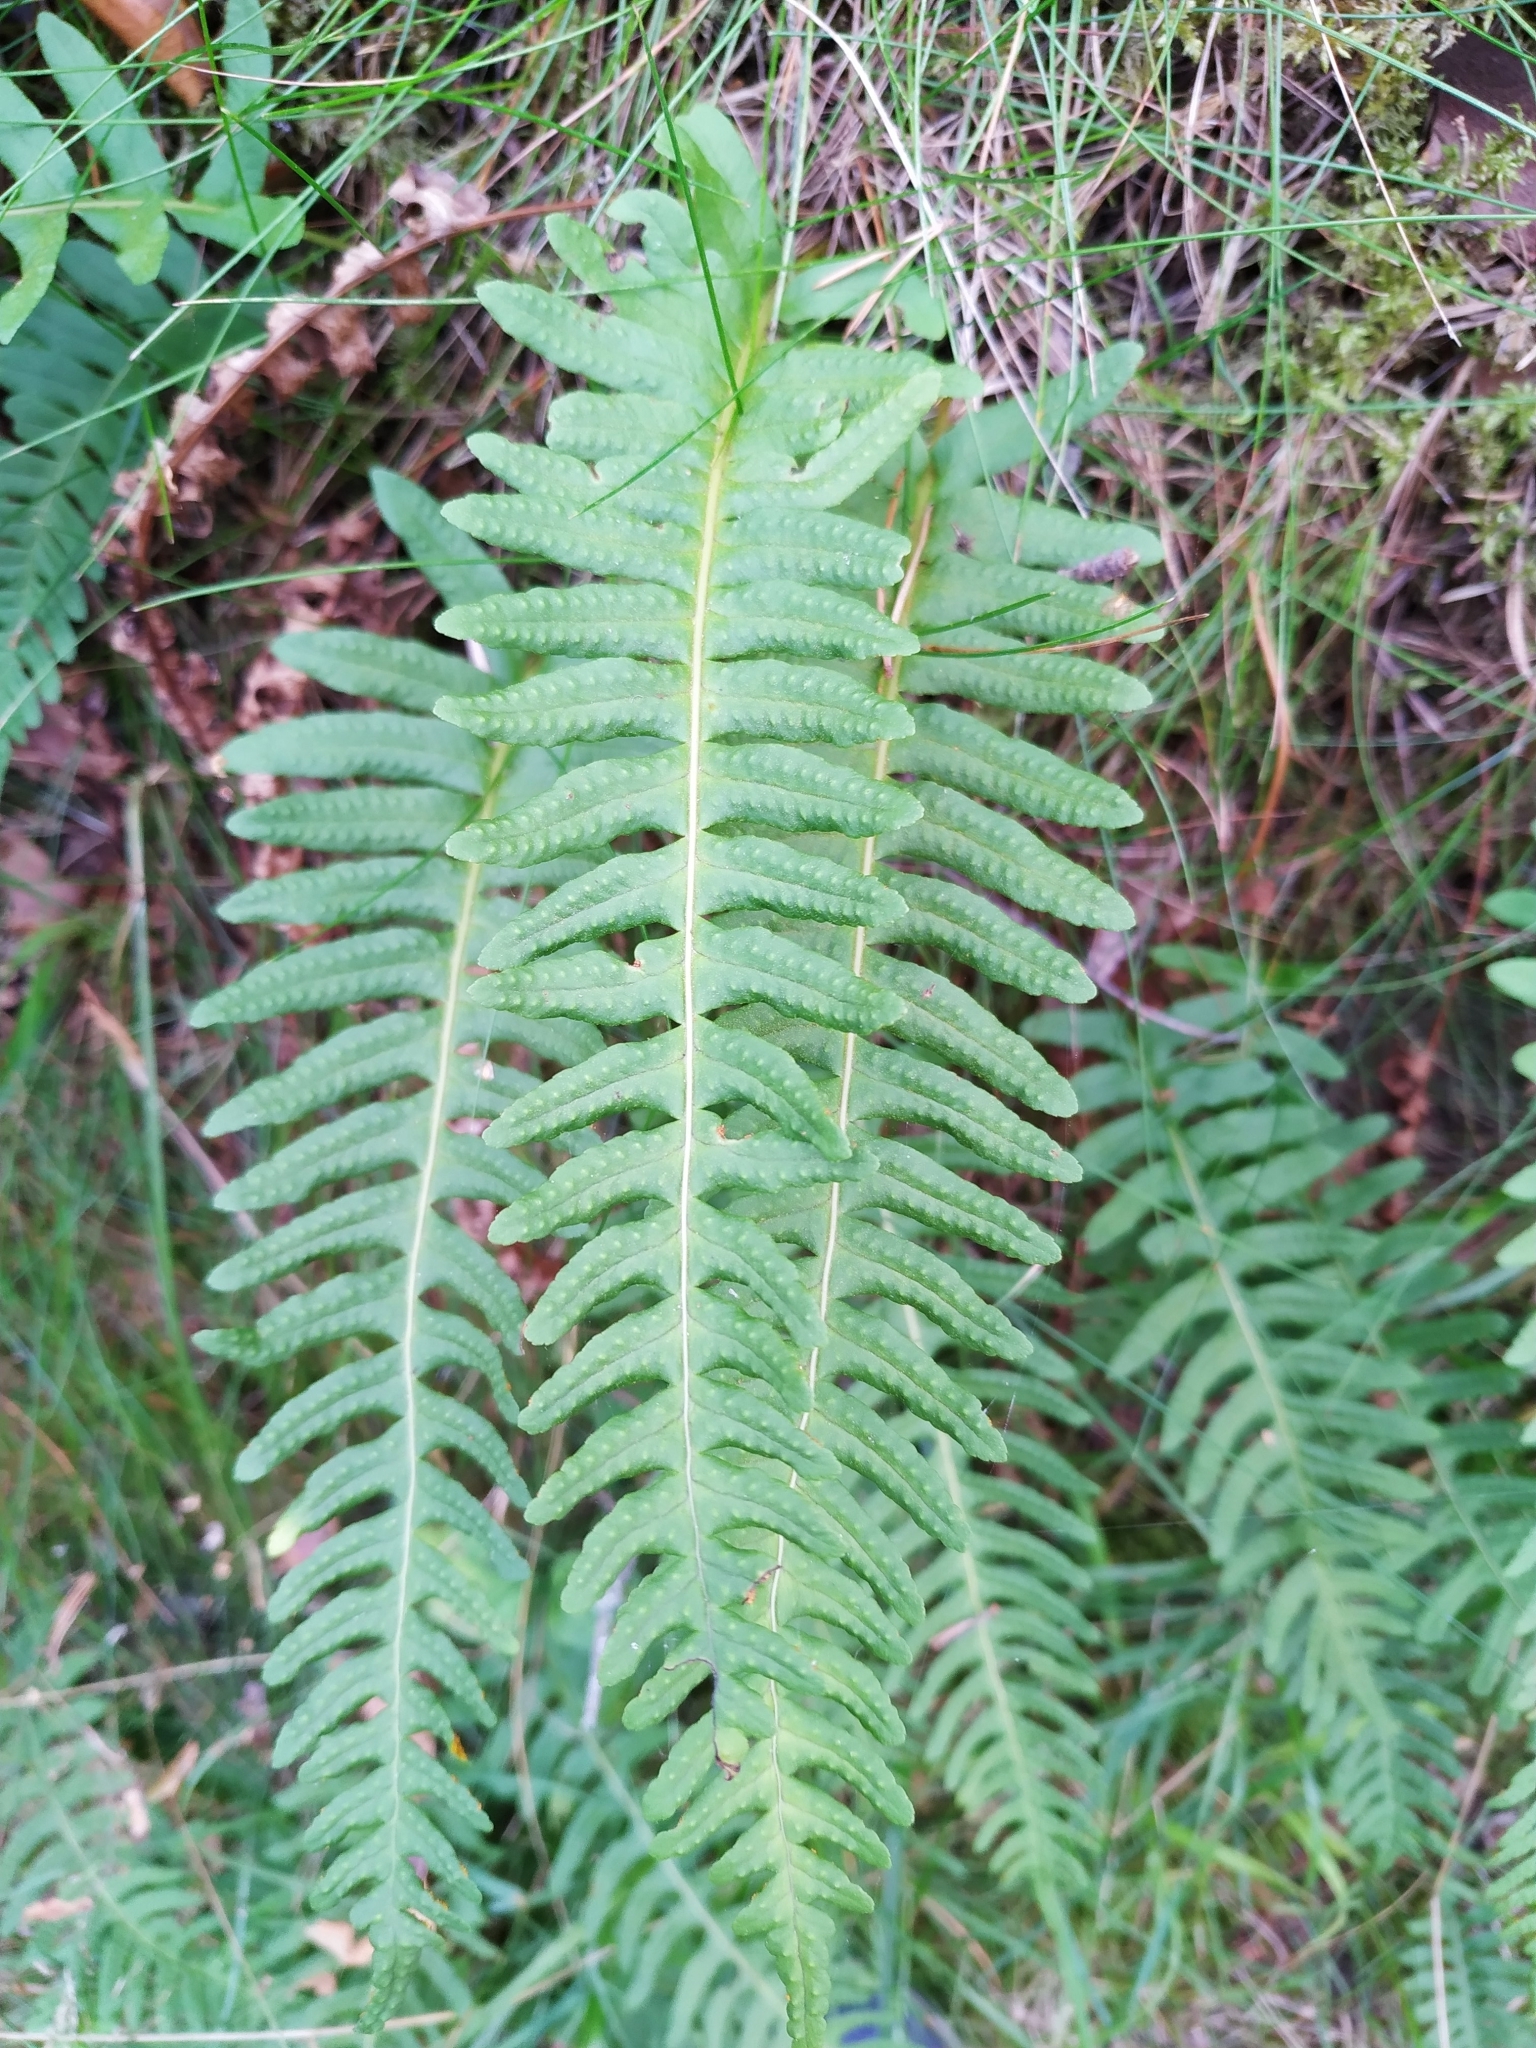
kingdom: Plantae
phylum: Tracheophyta
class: Polypodiopsida
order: Polypodiales
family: Polypodiaceae
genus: Polypodium
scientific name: Polypodium vulgare
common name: Common polypody
